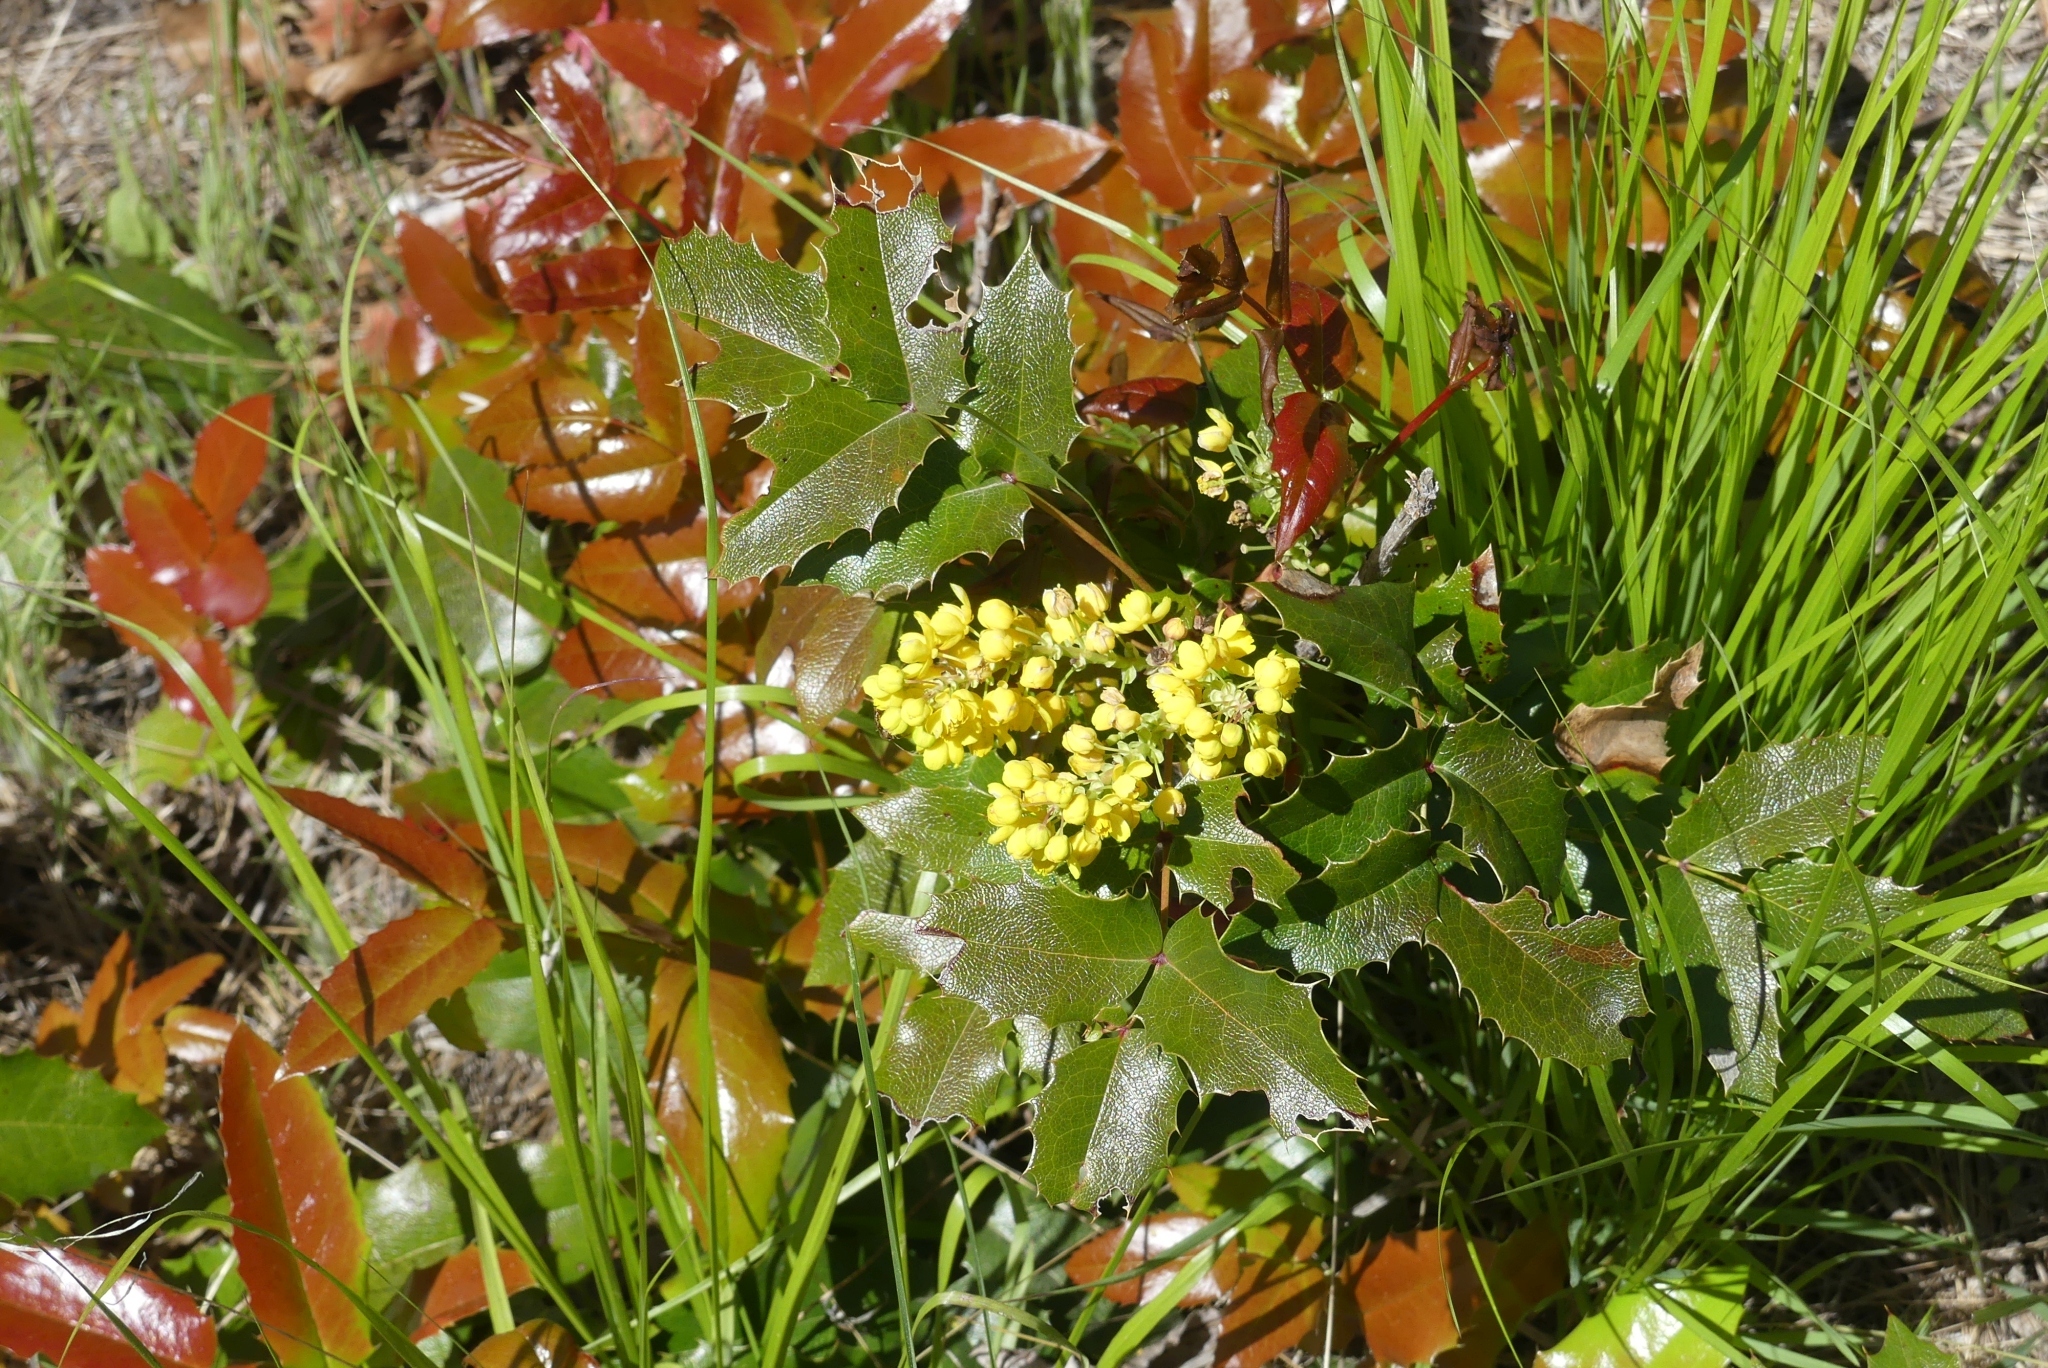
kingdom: Plantae
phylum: Tracheophyta
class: Magnoliopsida
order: Ranunculales
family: Berberidaceae
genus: Mahonia
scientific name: Mahonia aquifolium
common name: Oregon-grape
